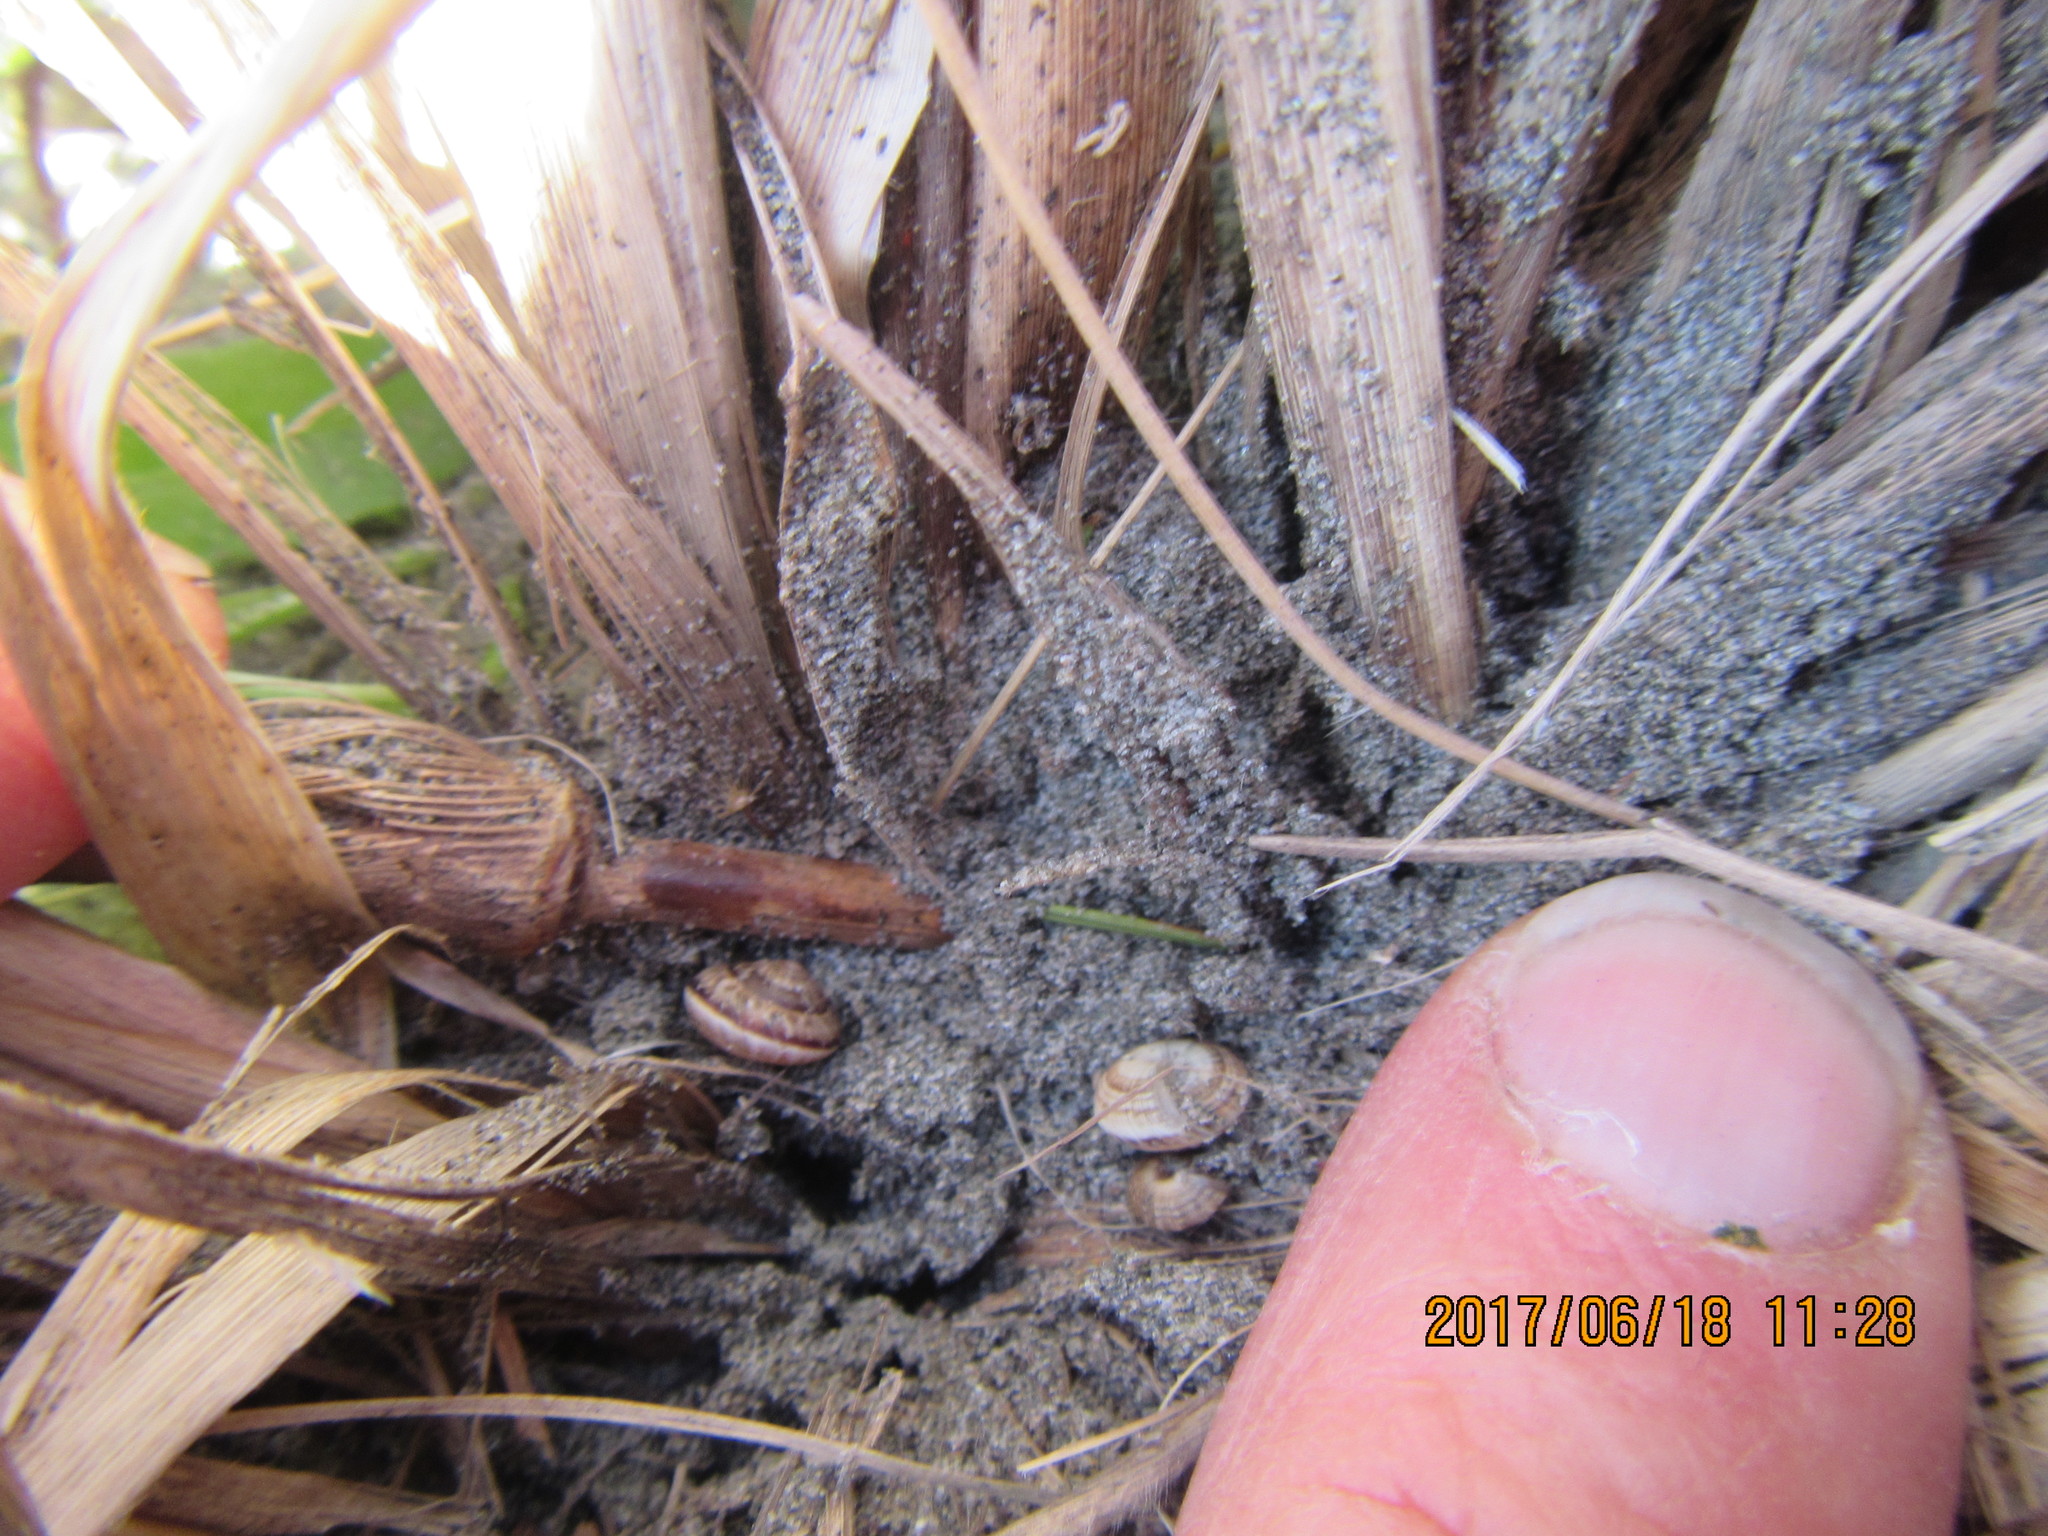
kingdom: Animalia
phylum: Mollusca
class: Gastropoda
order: Stylommatophora
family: Geomitridae
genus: Xeroplexa
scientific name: Xeroplexa intersecta
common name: Wrinkled snail
